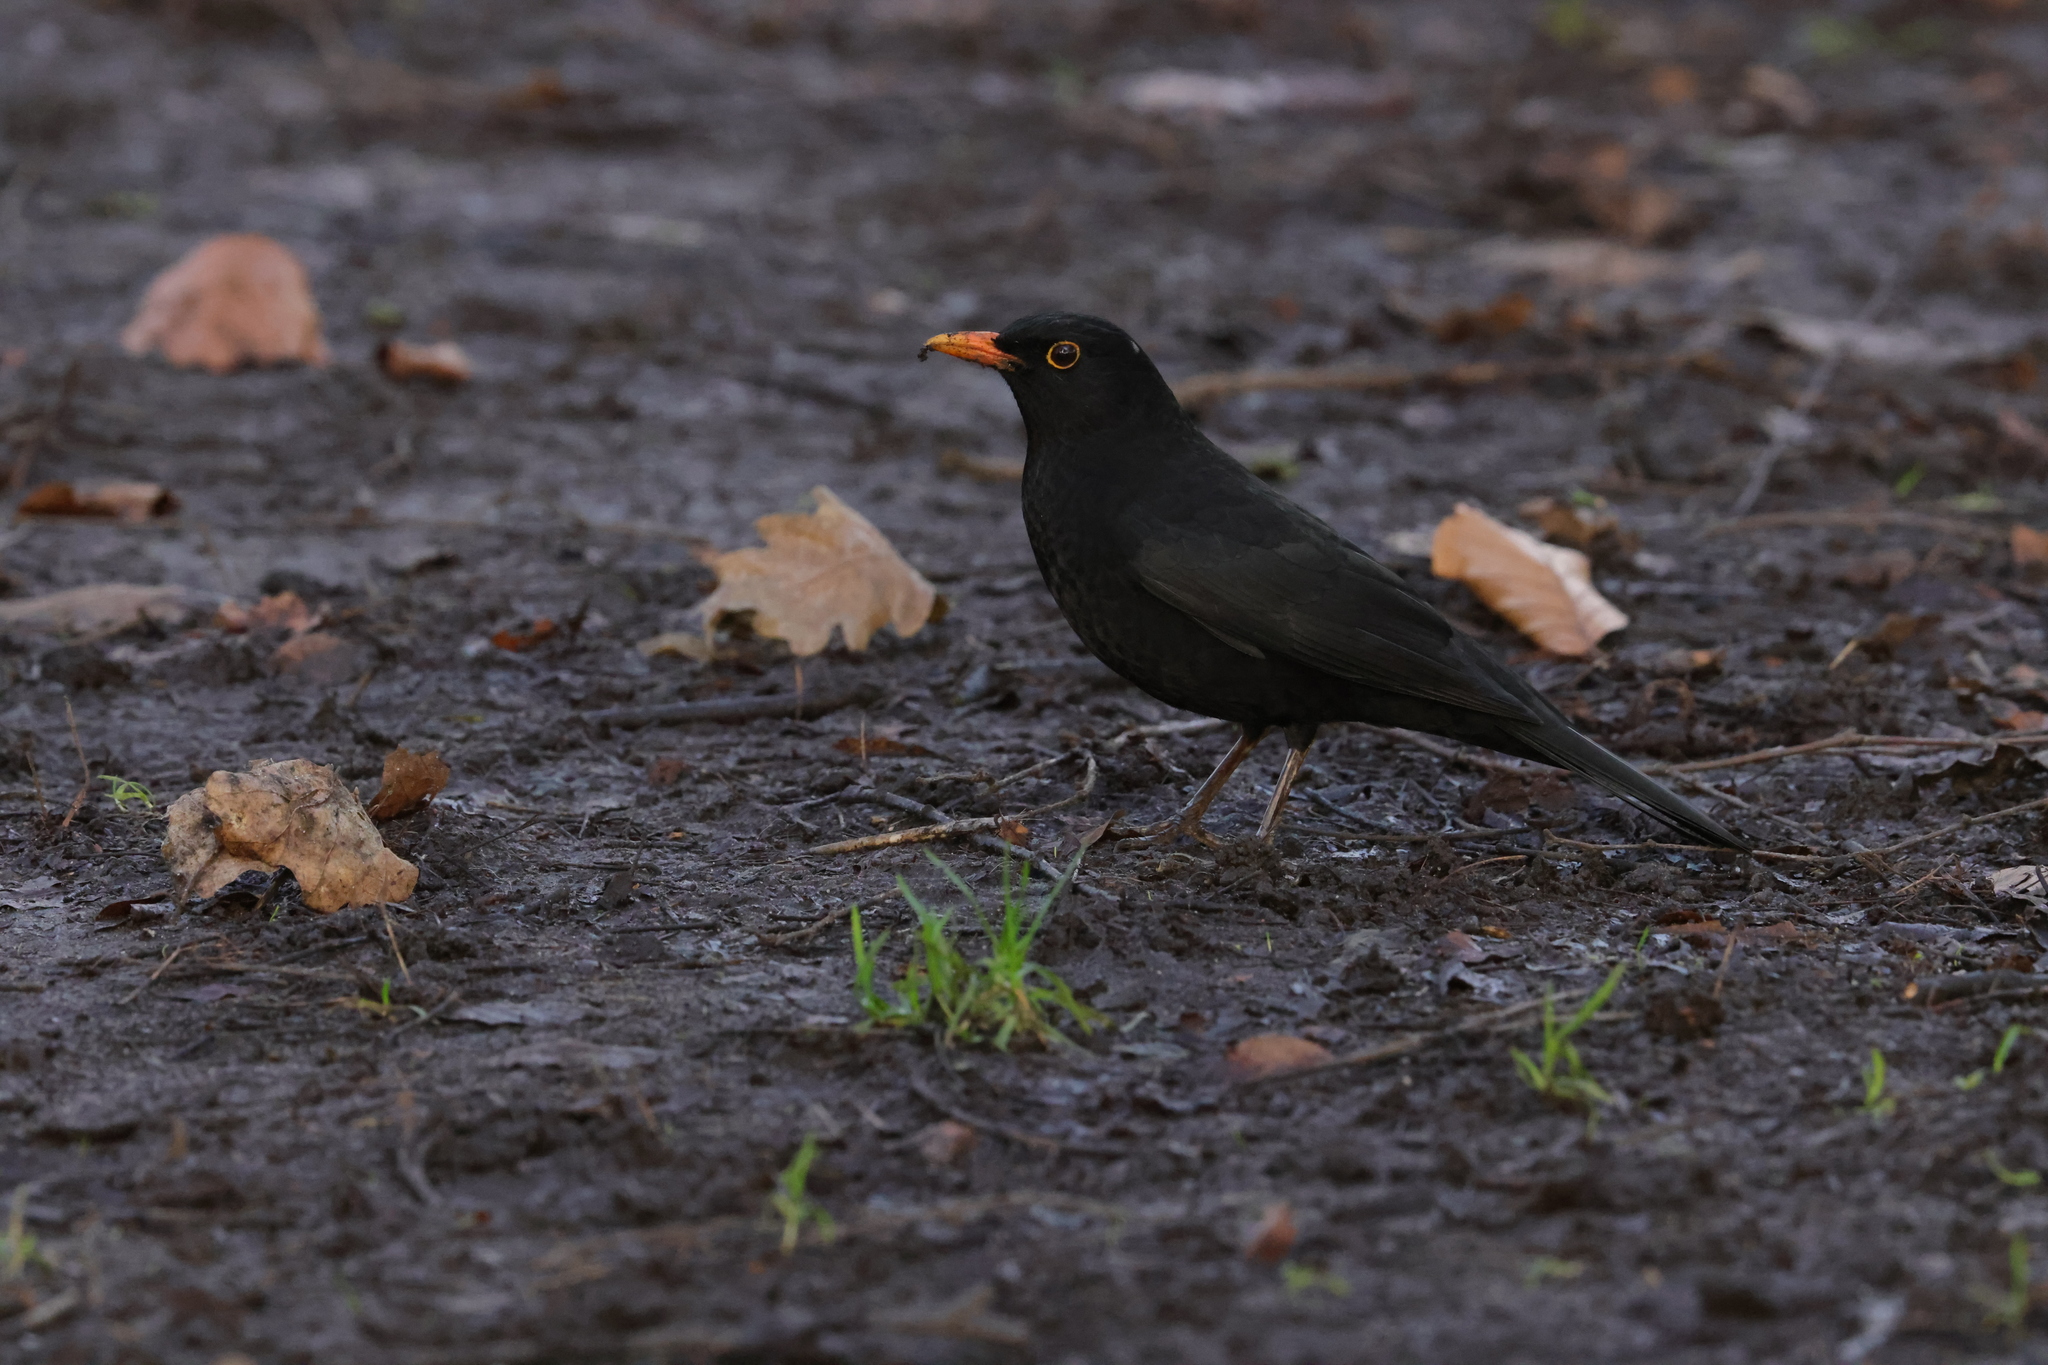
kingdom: Animalia
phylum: Chordata
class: Aves
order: Passeriformes
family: Turdidae
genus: Turdus
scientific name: Turdus merula
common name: Common blackbird
